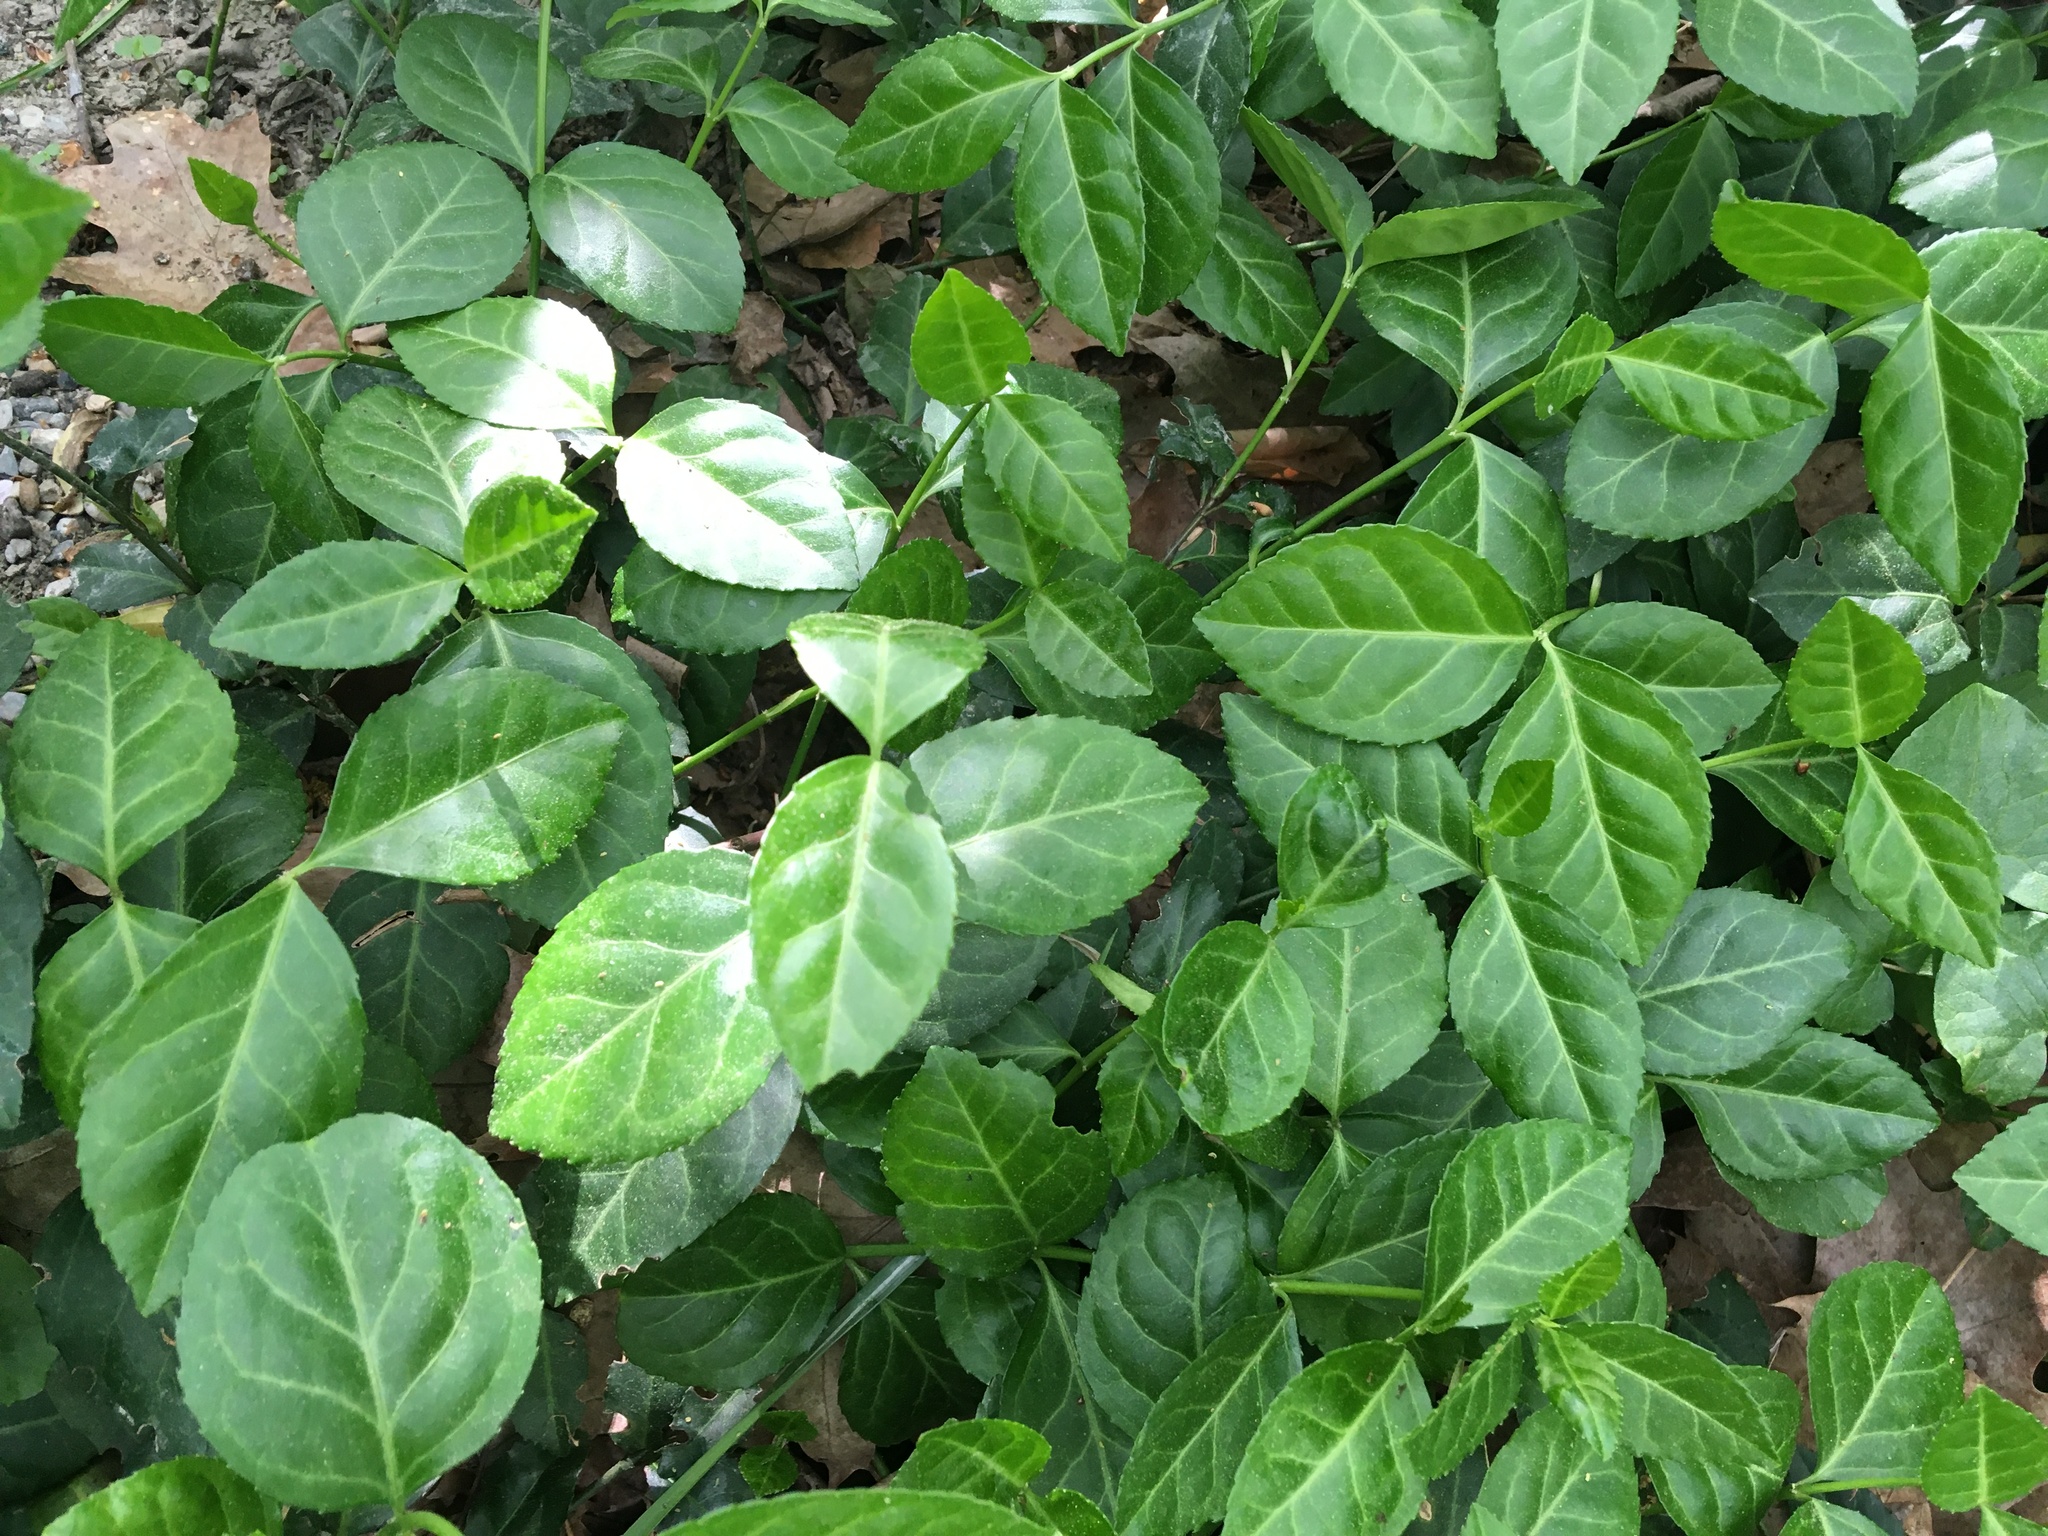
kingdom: Plantae
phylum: Tracheophyta
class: Magnoliopsida
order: Celastrales
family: Celastraceae
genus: Euonymus
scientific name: Euonymus fortunei
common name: Climbing euonymus
